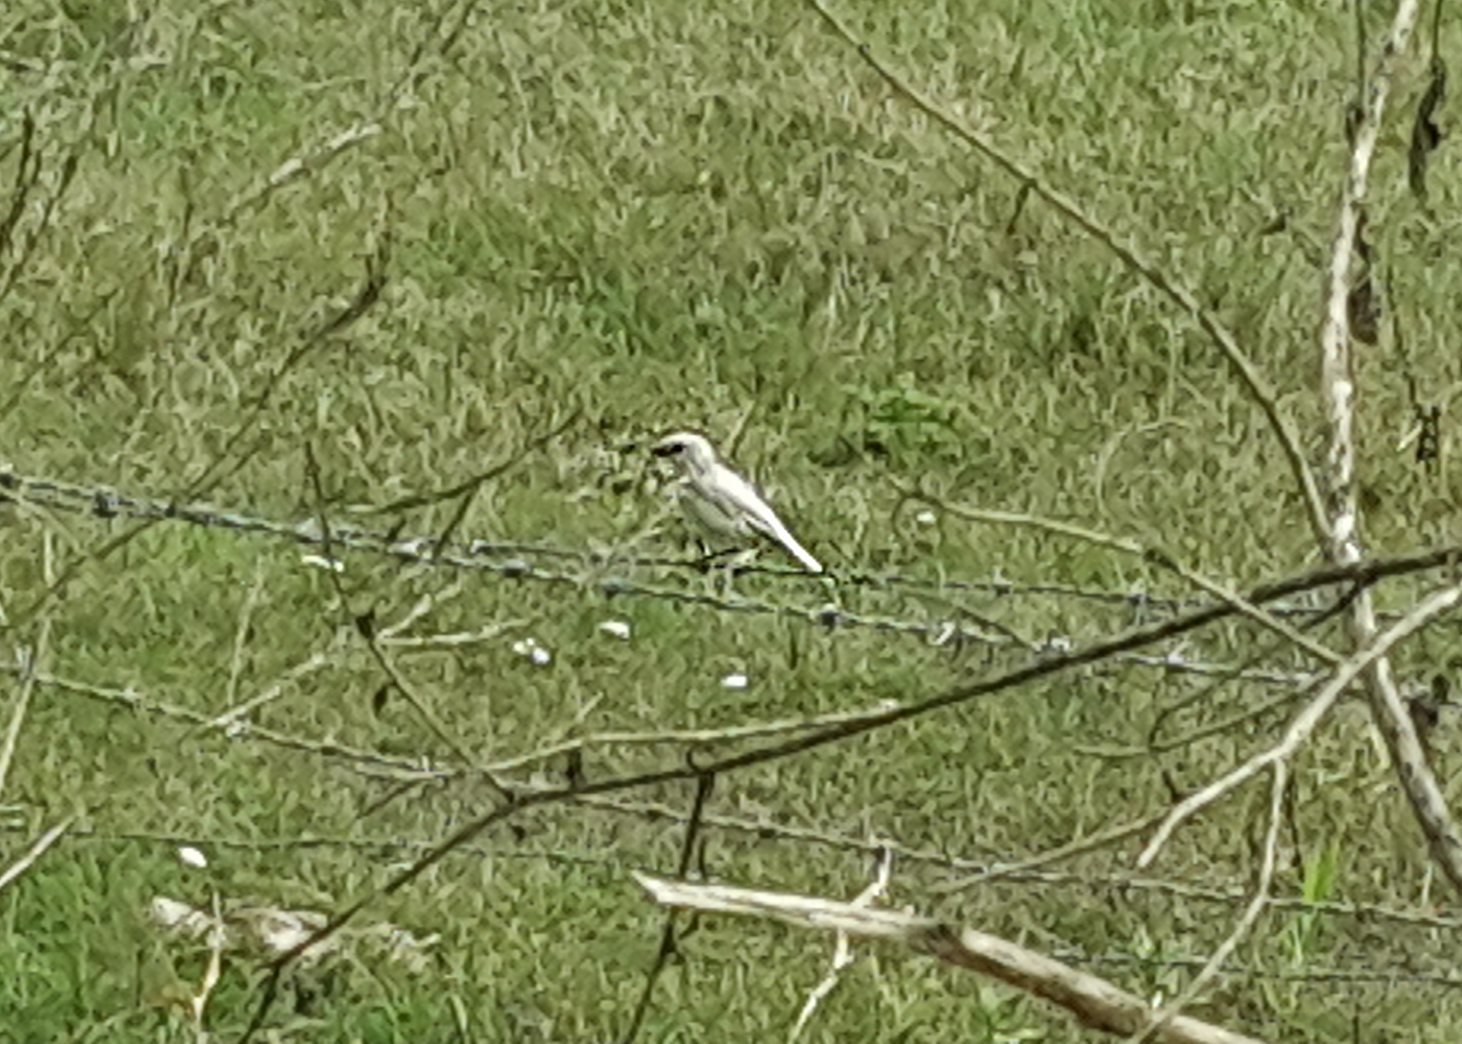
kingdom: Animalia
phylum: Chordata
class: Aves
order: Passeriformes
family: Passeridae
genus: Passer
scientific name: Passer domesticus
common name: House sparrow
